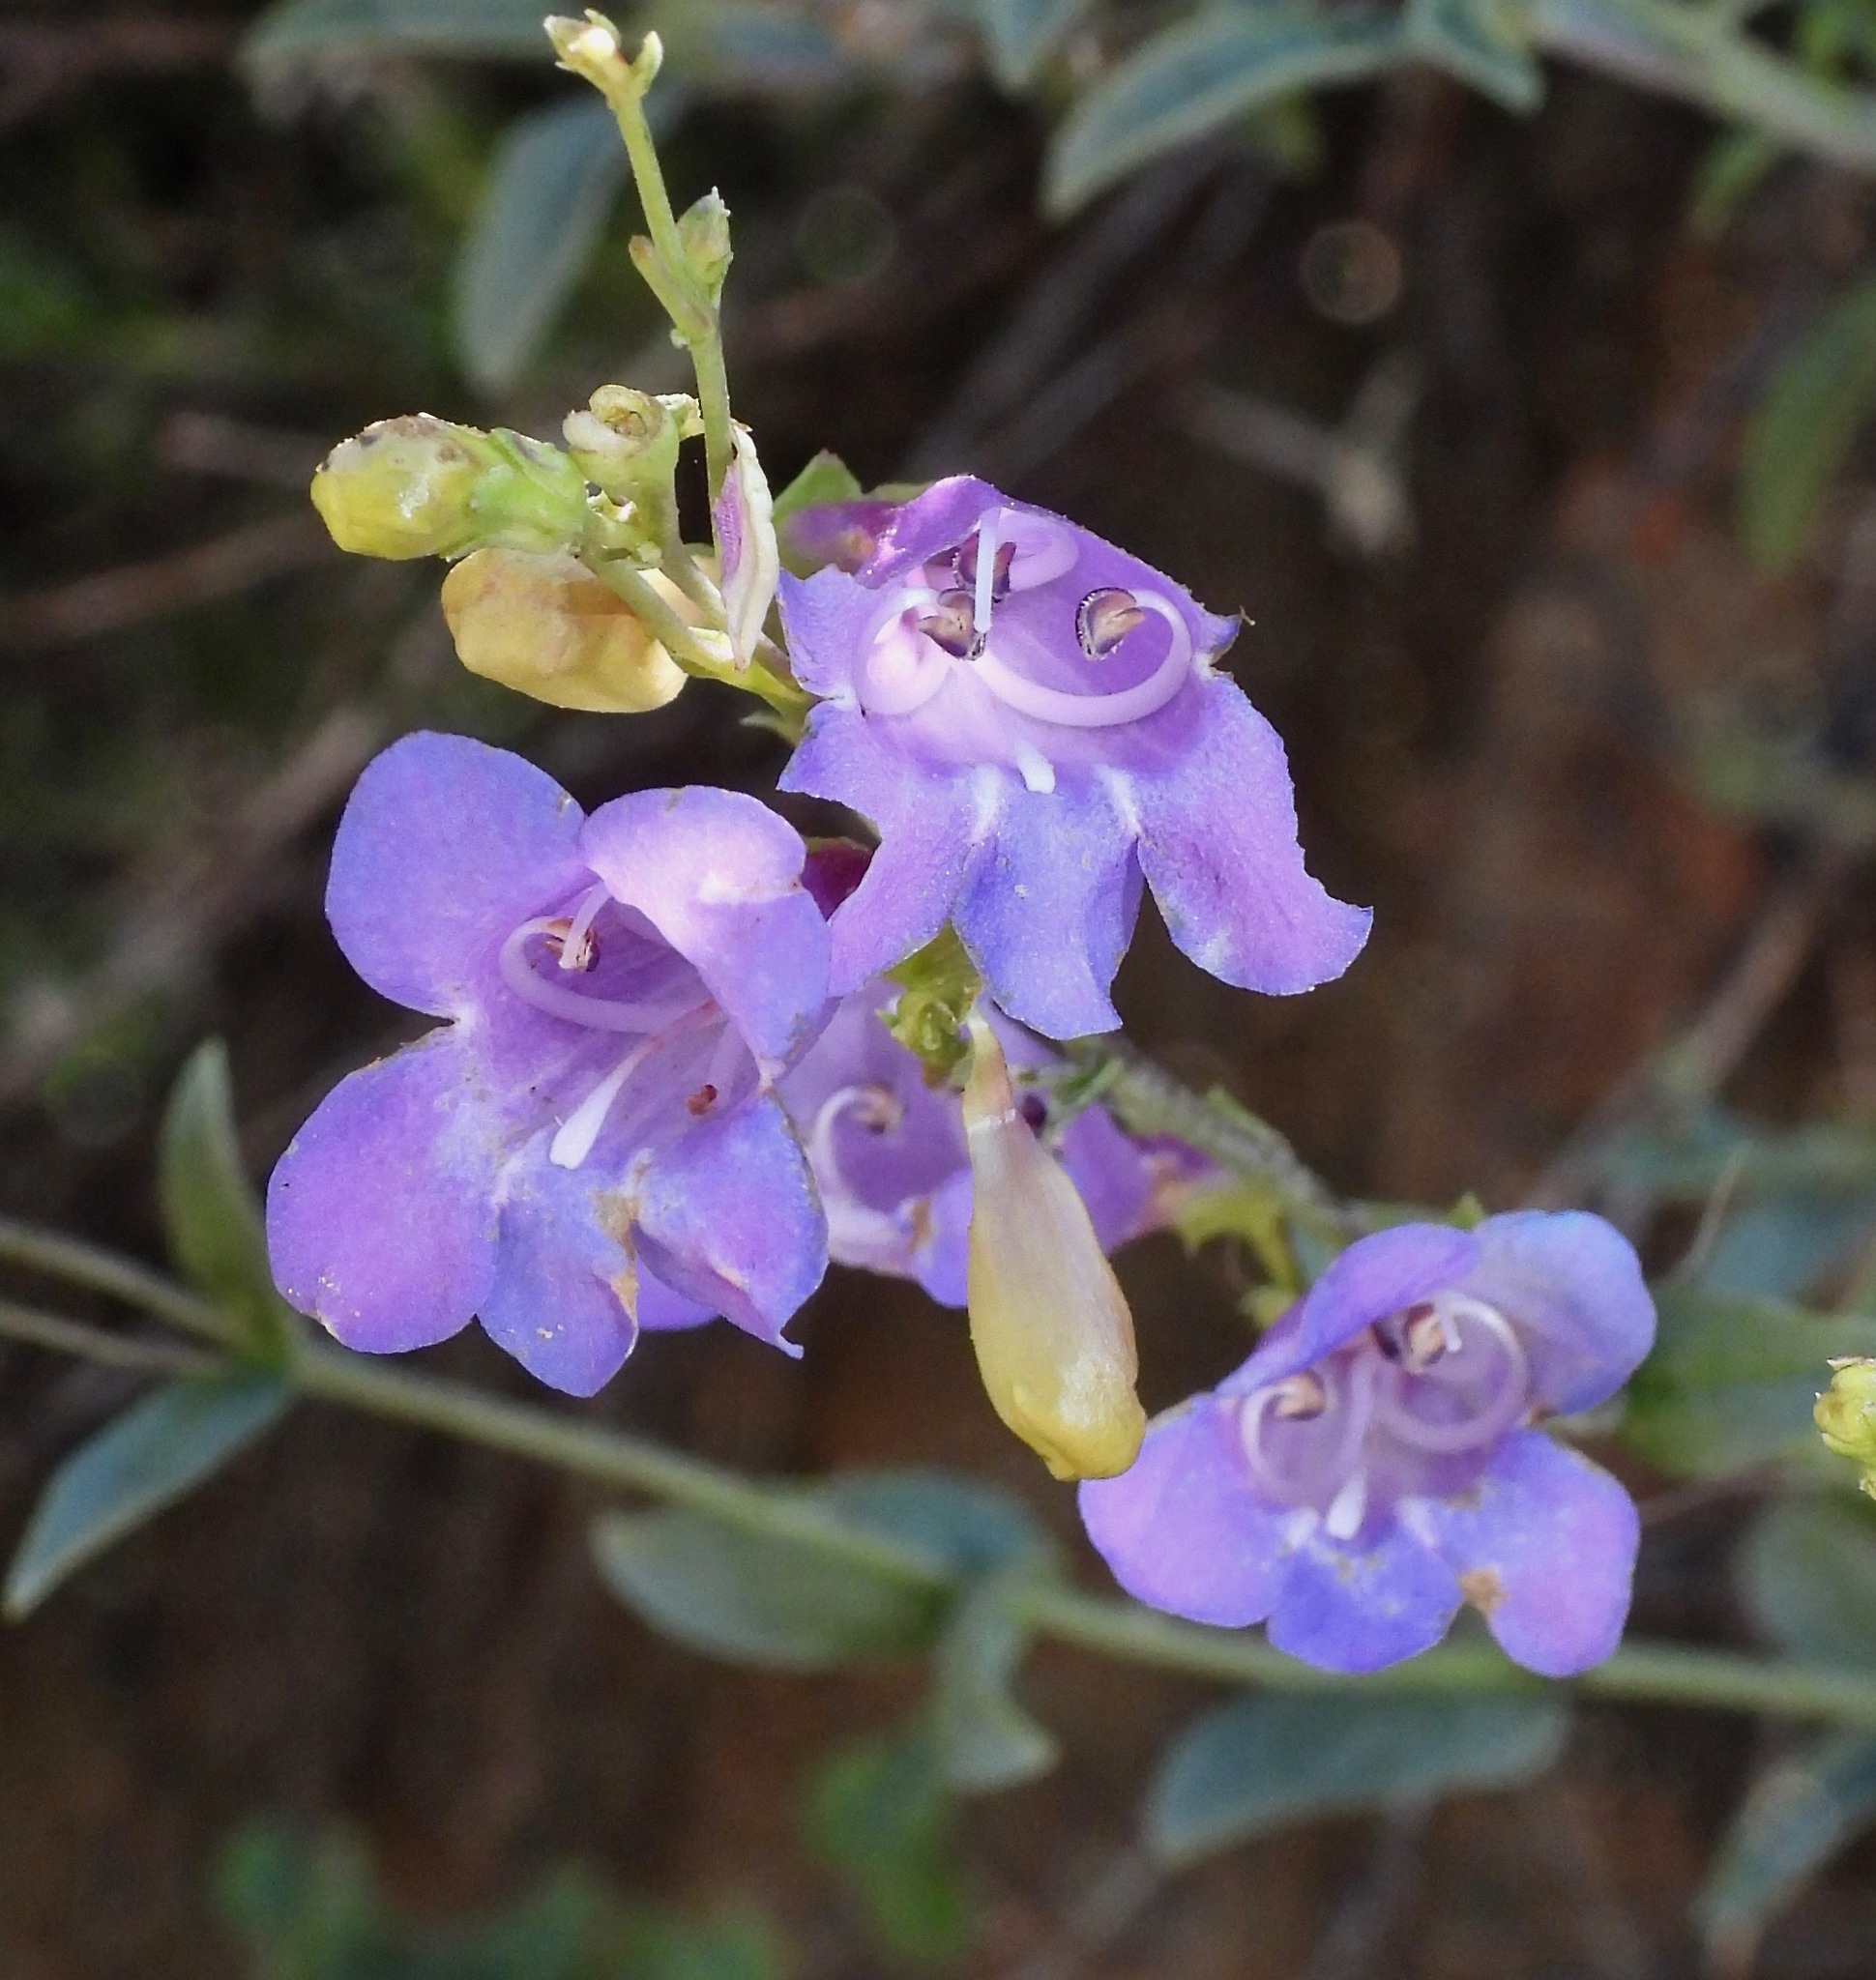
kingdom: Plantae
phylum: Tracheophyta
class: Magnoliopsida
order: Lamiales
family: Plantaginaceae
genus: Penstemon
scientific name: Penstemon parvulus
